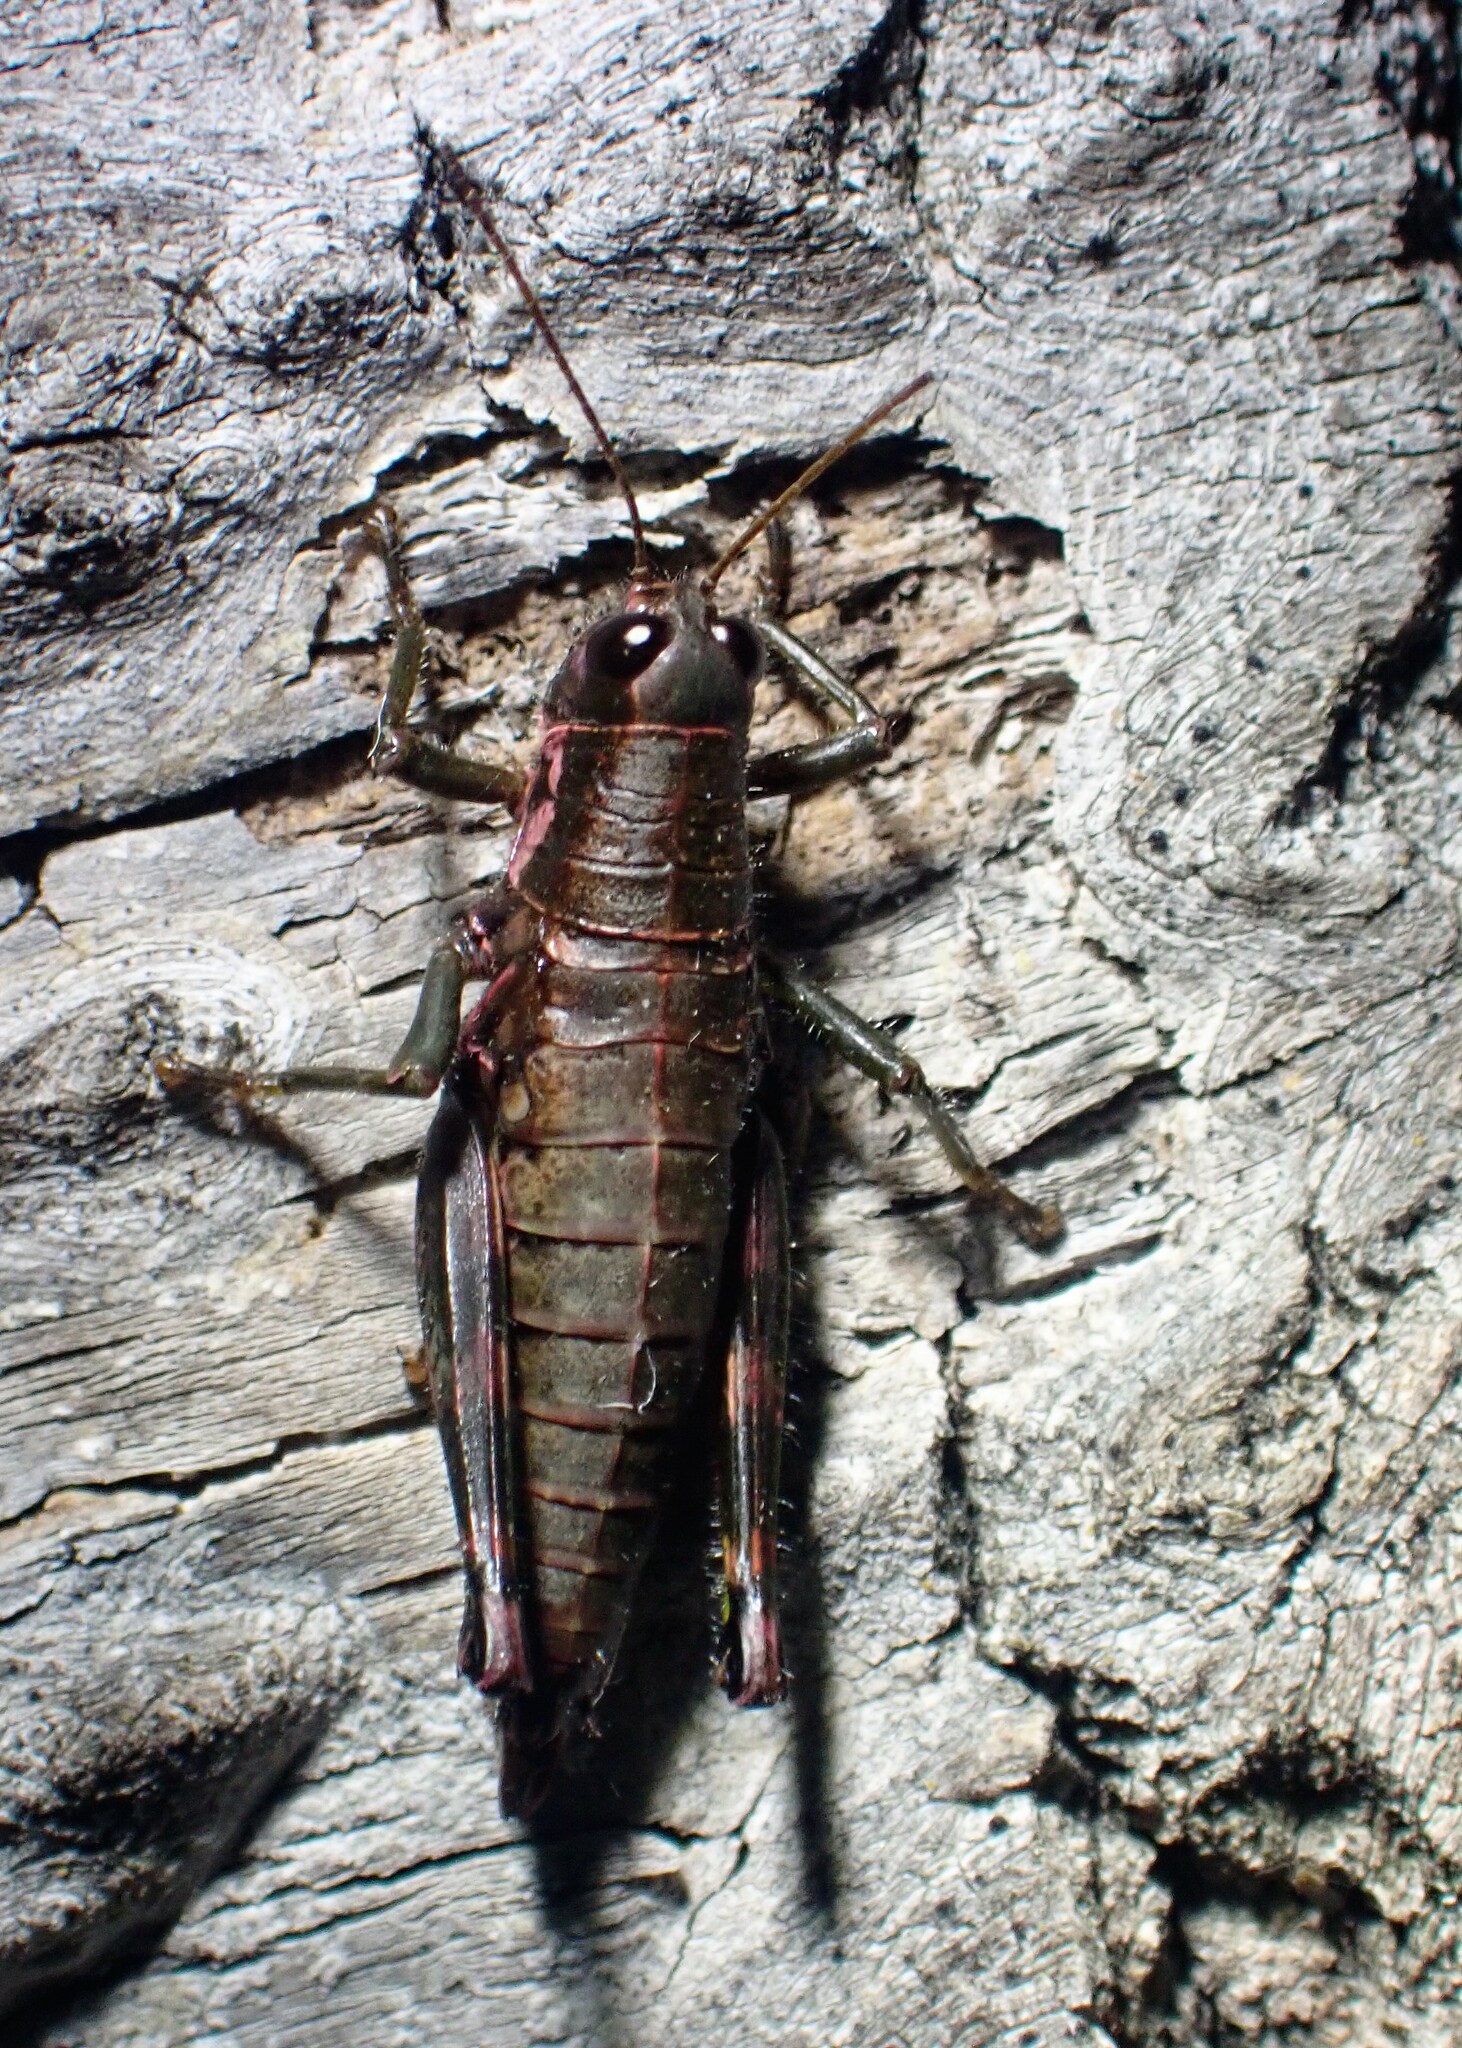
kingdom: Animalia
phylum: Arthropoda
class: Insecta
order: Orthoptera
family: Acrididae
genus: Booneacris
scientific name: Booneacris glacialis
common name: Wingless mountain grasshopper
